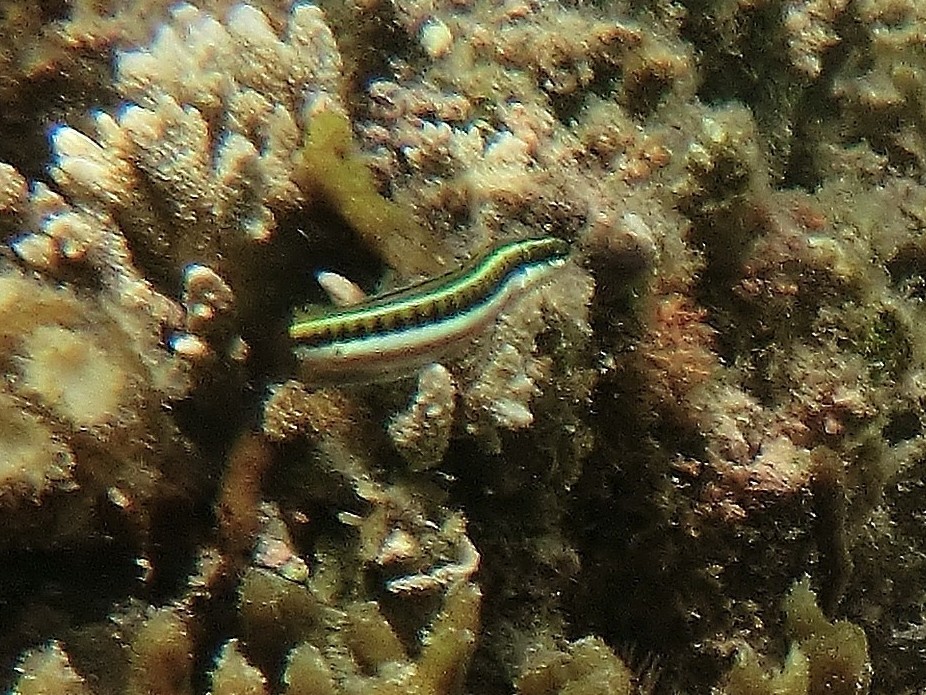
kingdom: Animalia
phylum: Chordata
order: Perciformes
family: Blenniidae
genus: Plagiotremus
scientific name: Plagiotremus tapeinosoma
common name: Hit and run blenny
